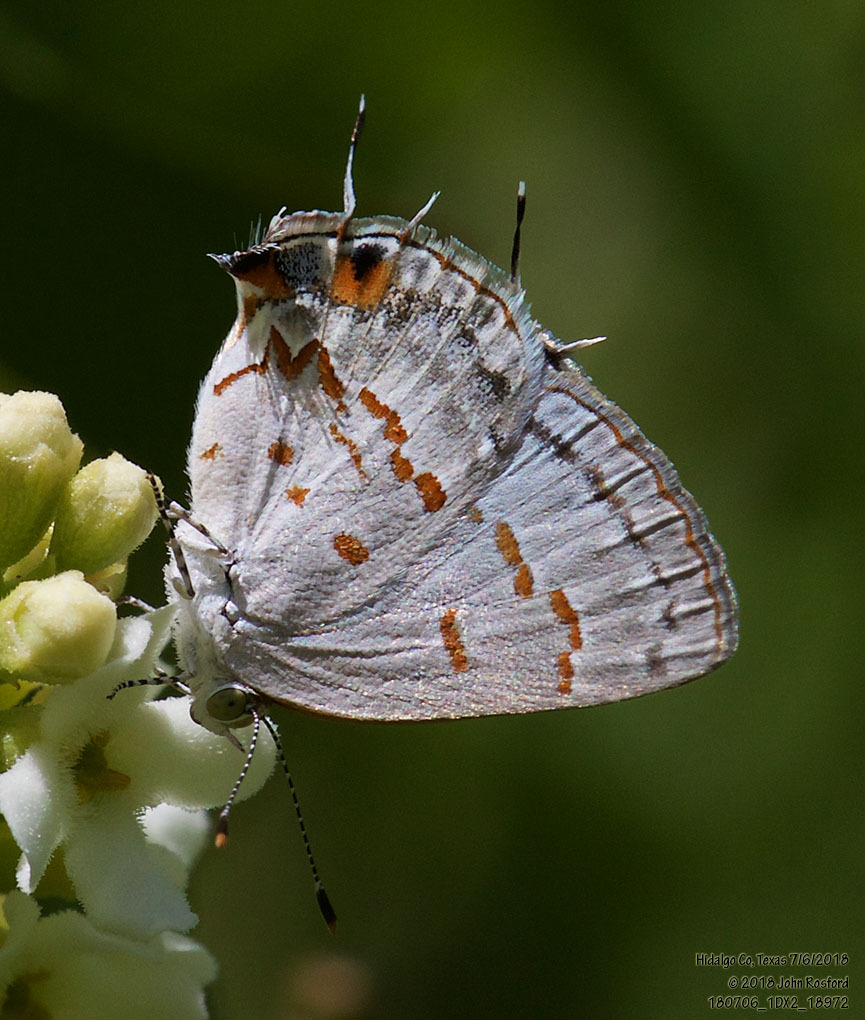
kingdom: Animalia
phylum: Arthropoda
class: Insecta
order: Lepidoptera
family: Lycaenidae
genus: Ministrymon
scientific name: Ministrymon clytie
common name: Clytie ministreak
